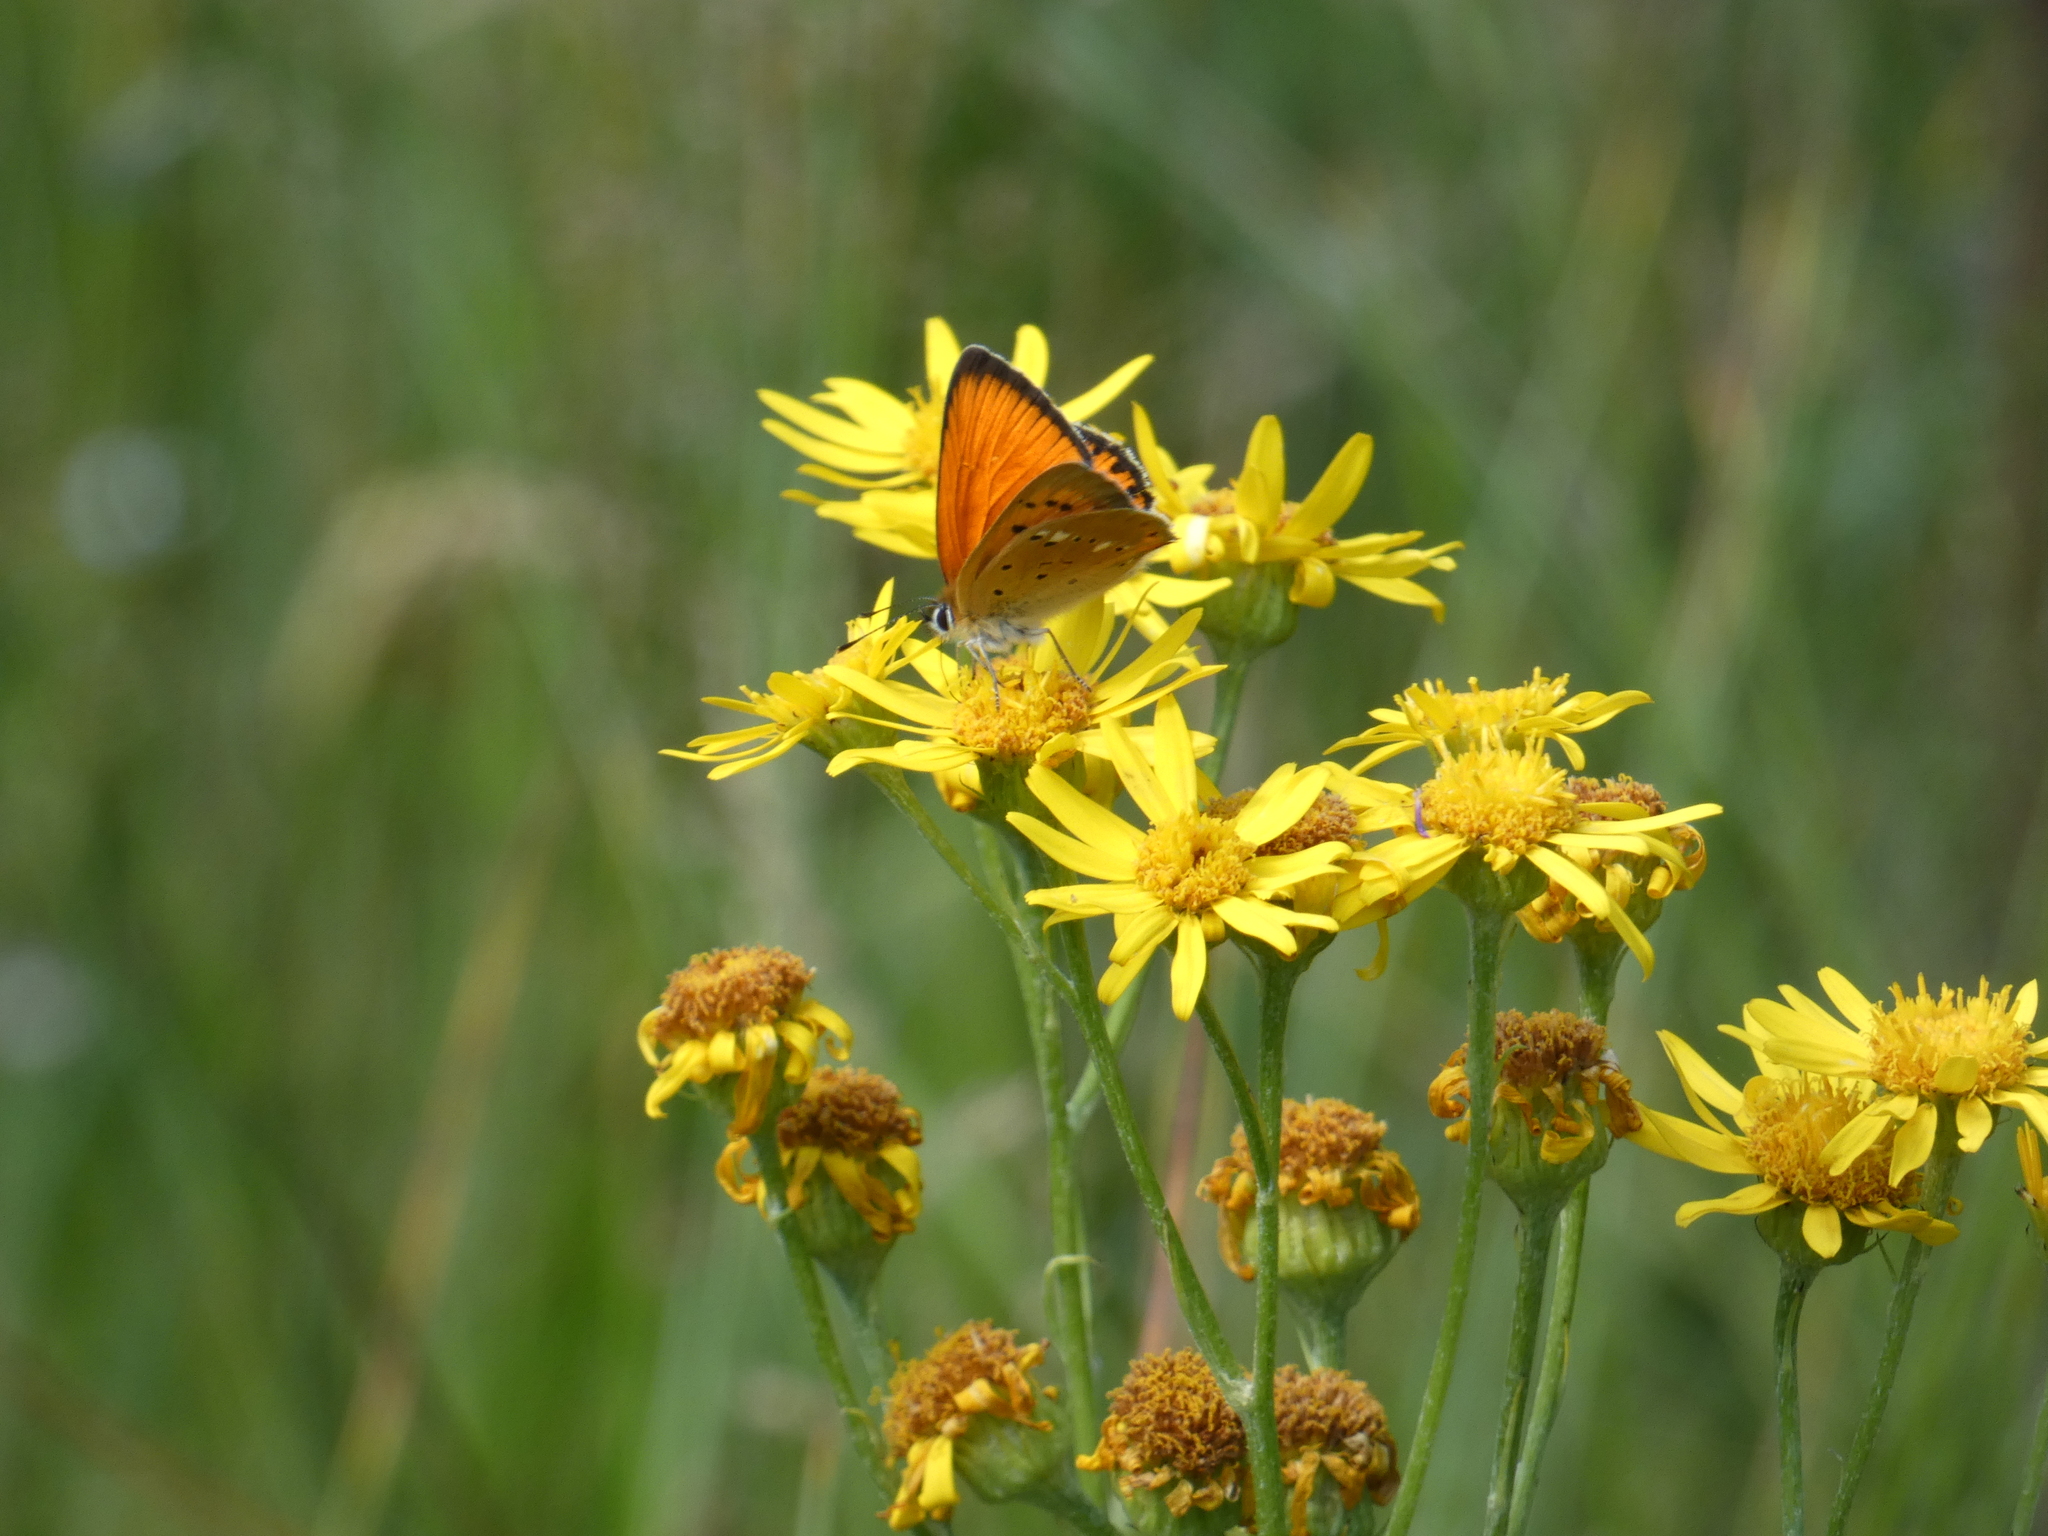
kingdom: Animalia
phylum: Arthropoda
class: Insecta
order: Lepidoptera
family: Lycaenidae
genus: Lycaena
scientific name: Lycaena virgaureae
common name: Scarce copper
